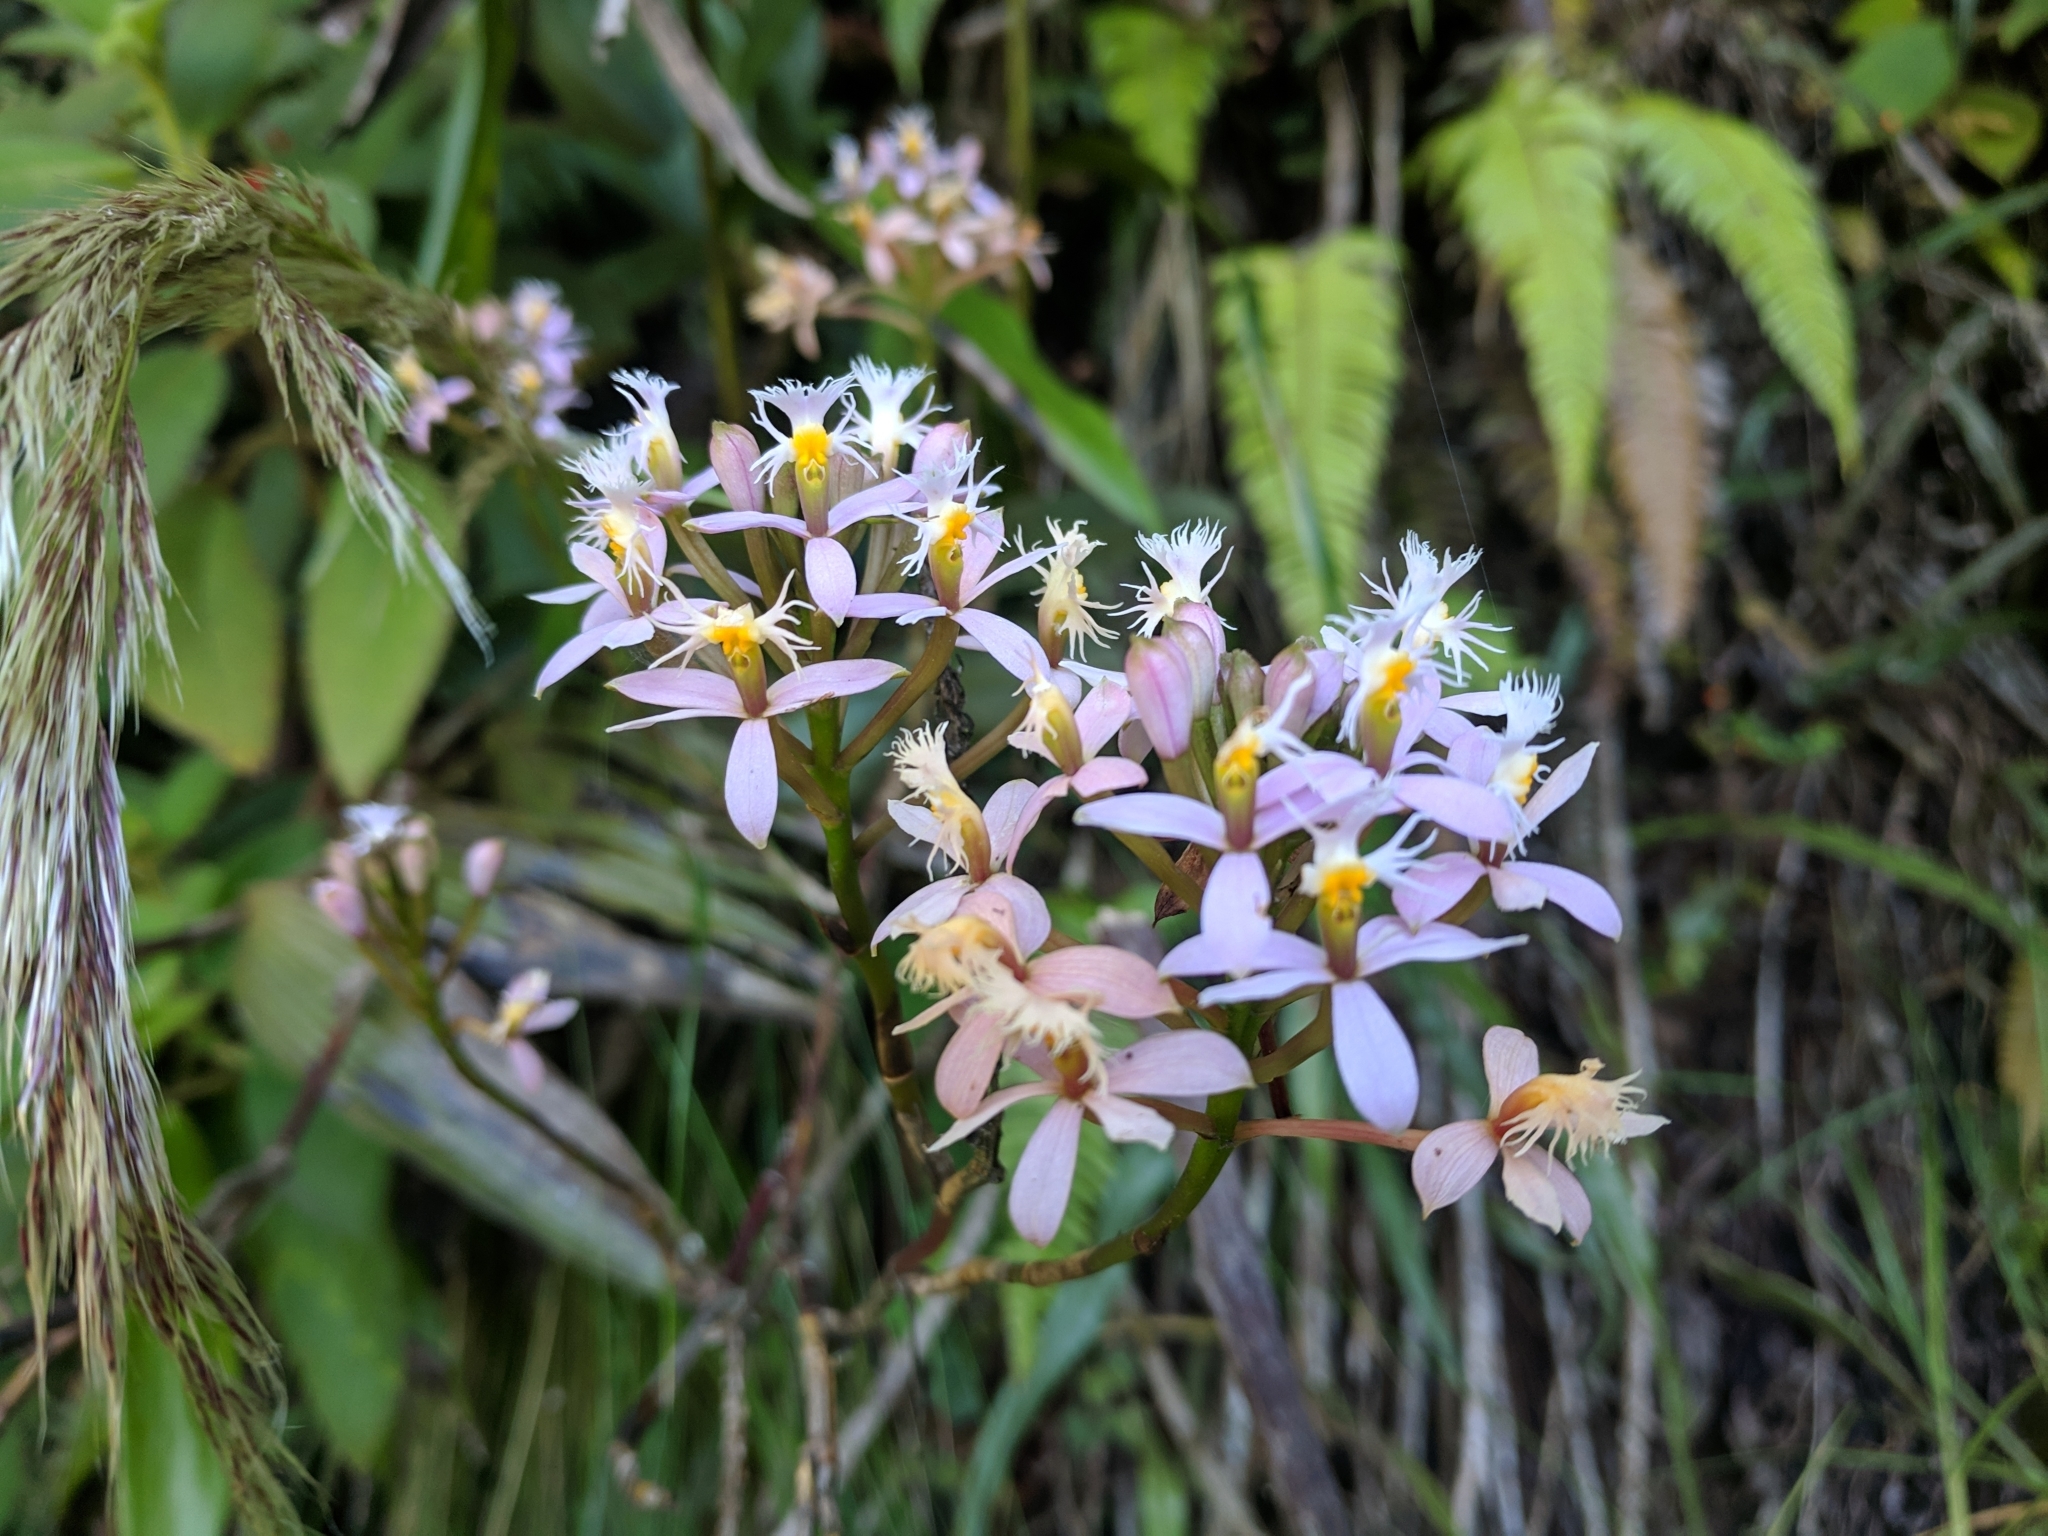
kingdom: Plantae
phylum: Tracheophyta
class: Liliopsida
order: Asparagales
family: Orchidaceae
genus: Epidendrum
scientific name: Epidendrum arachnoglossum
